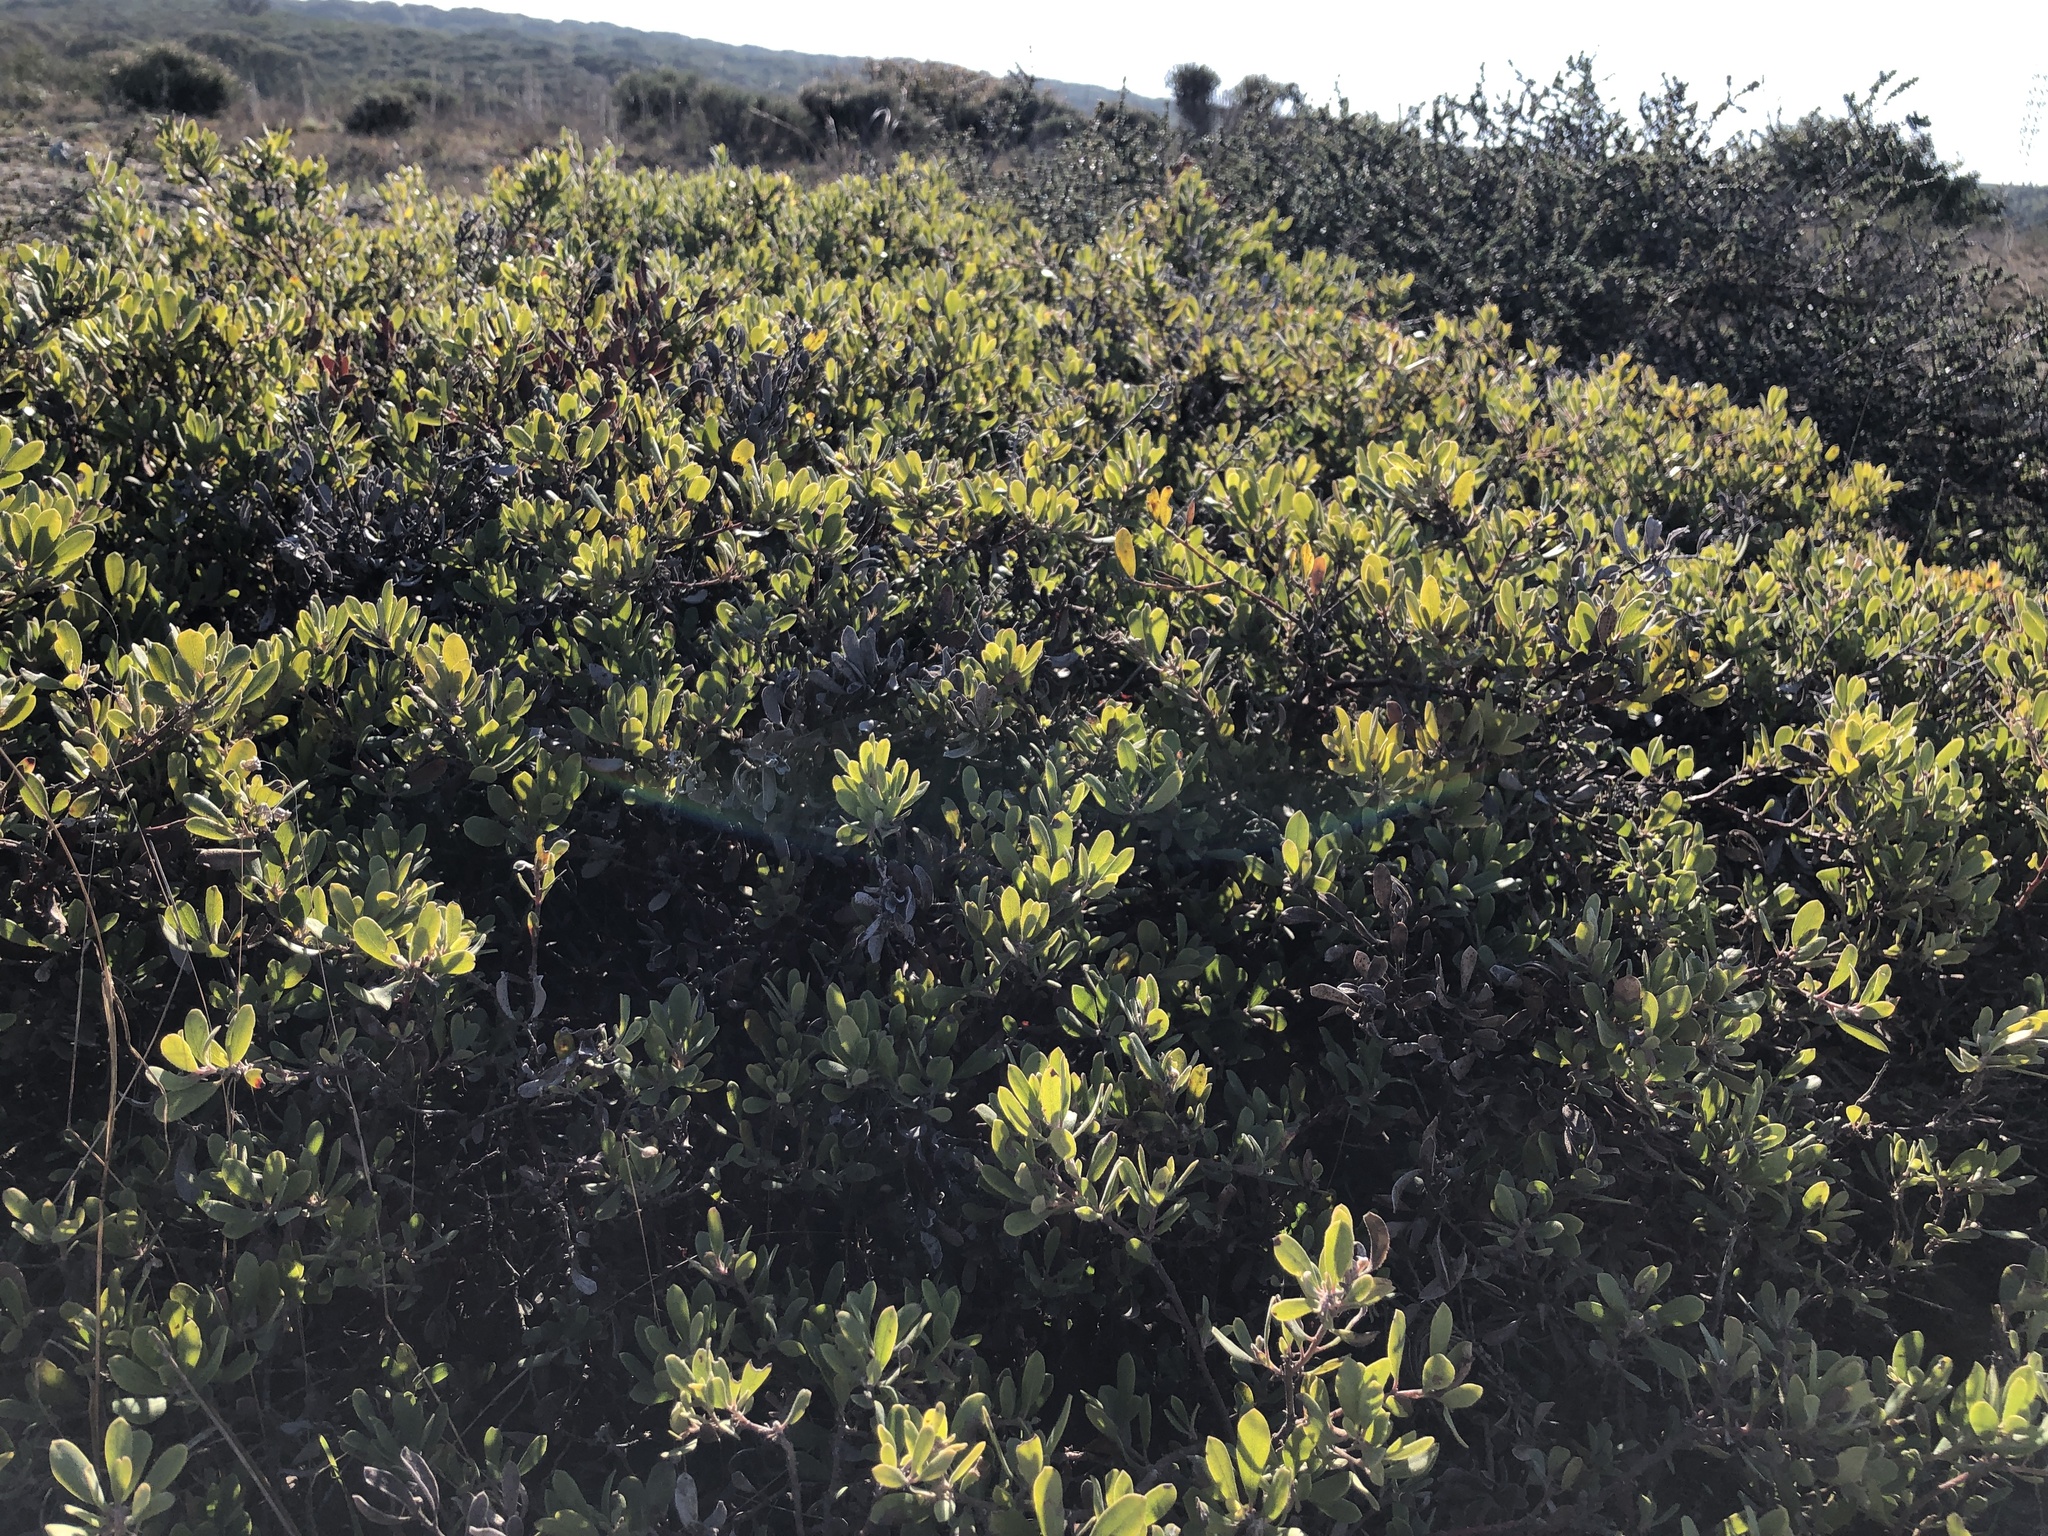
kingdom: Plantae
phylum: Tracheophyta
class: Magnoliopsida
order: Ericales
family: Ericaceae
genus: Arctostaphylos
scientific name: Arctostaphylos pumila
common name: Sandmat manzanita
